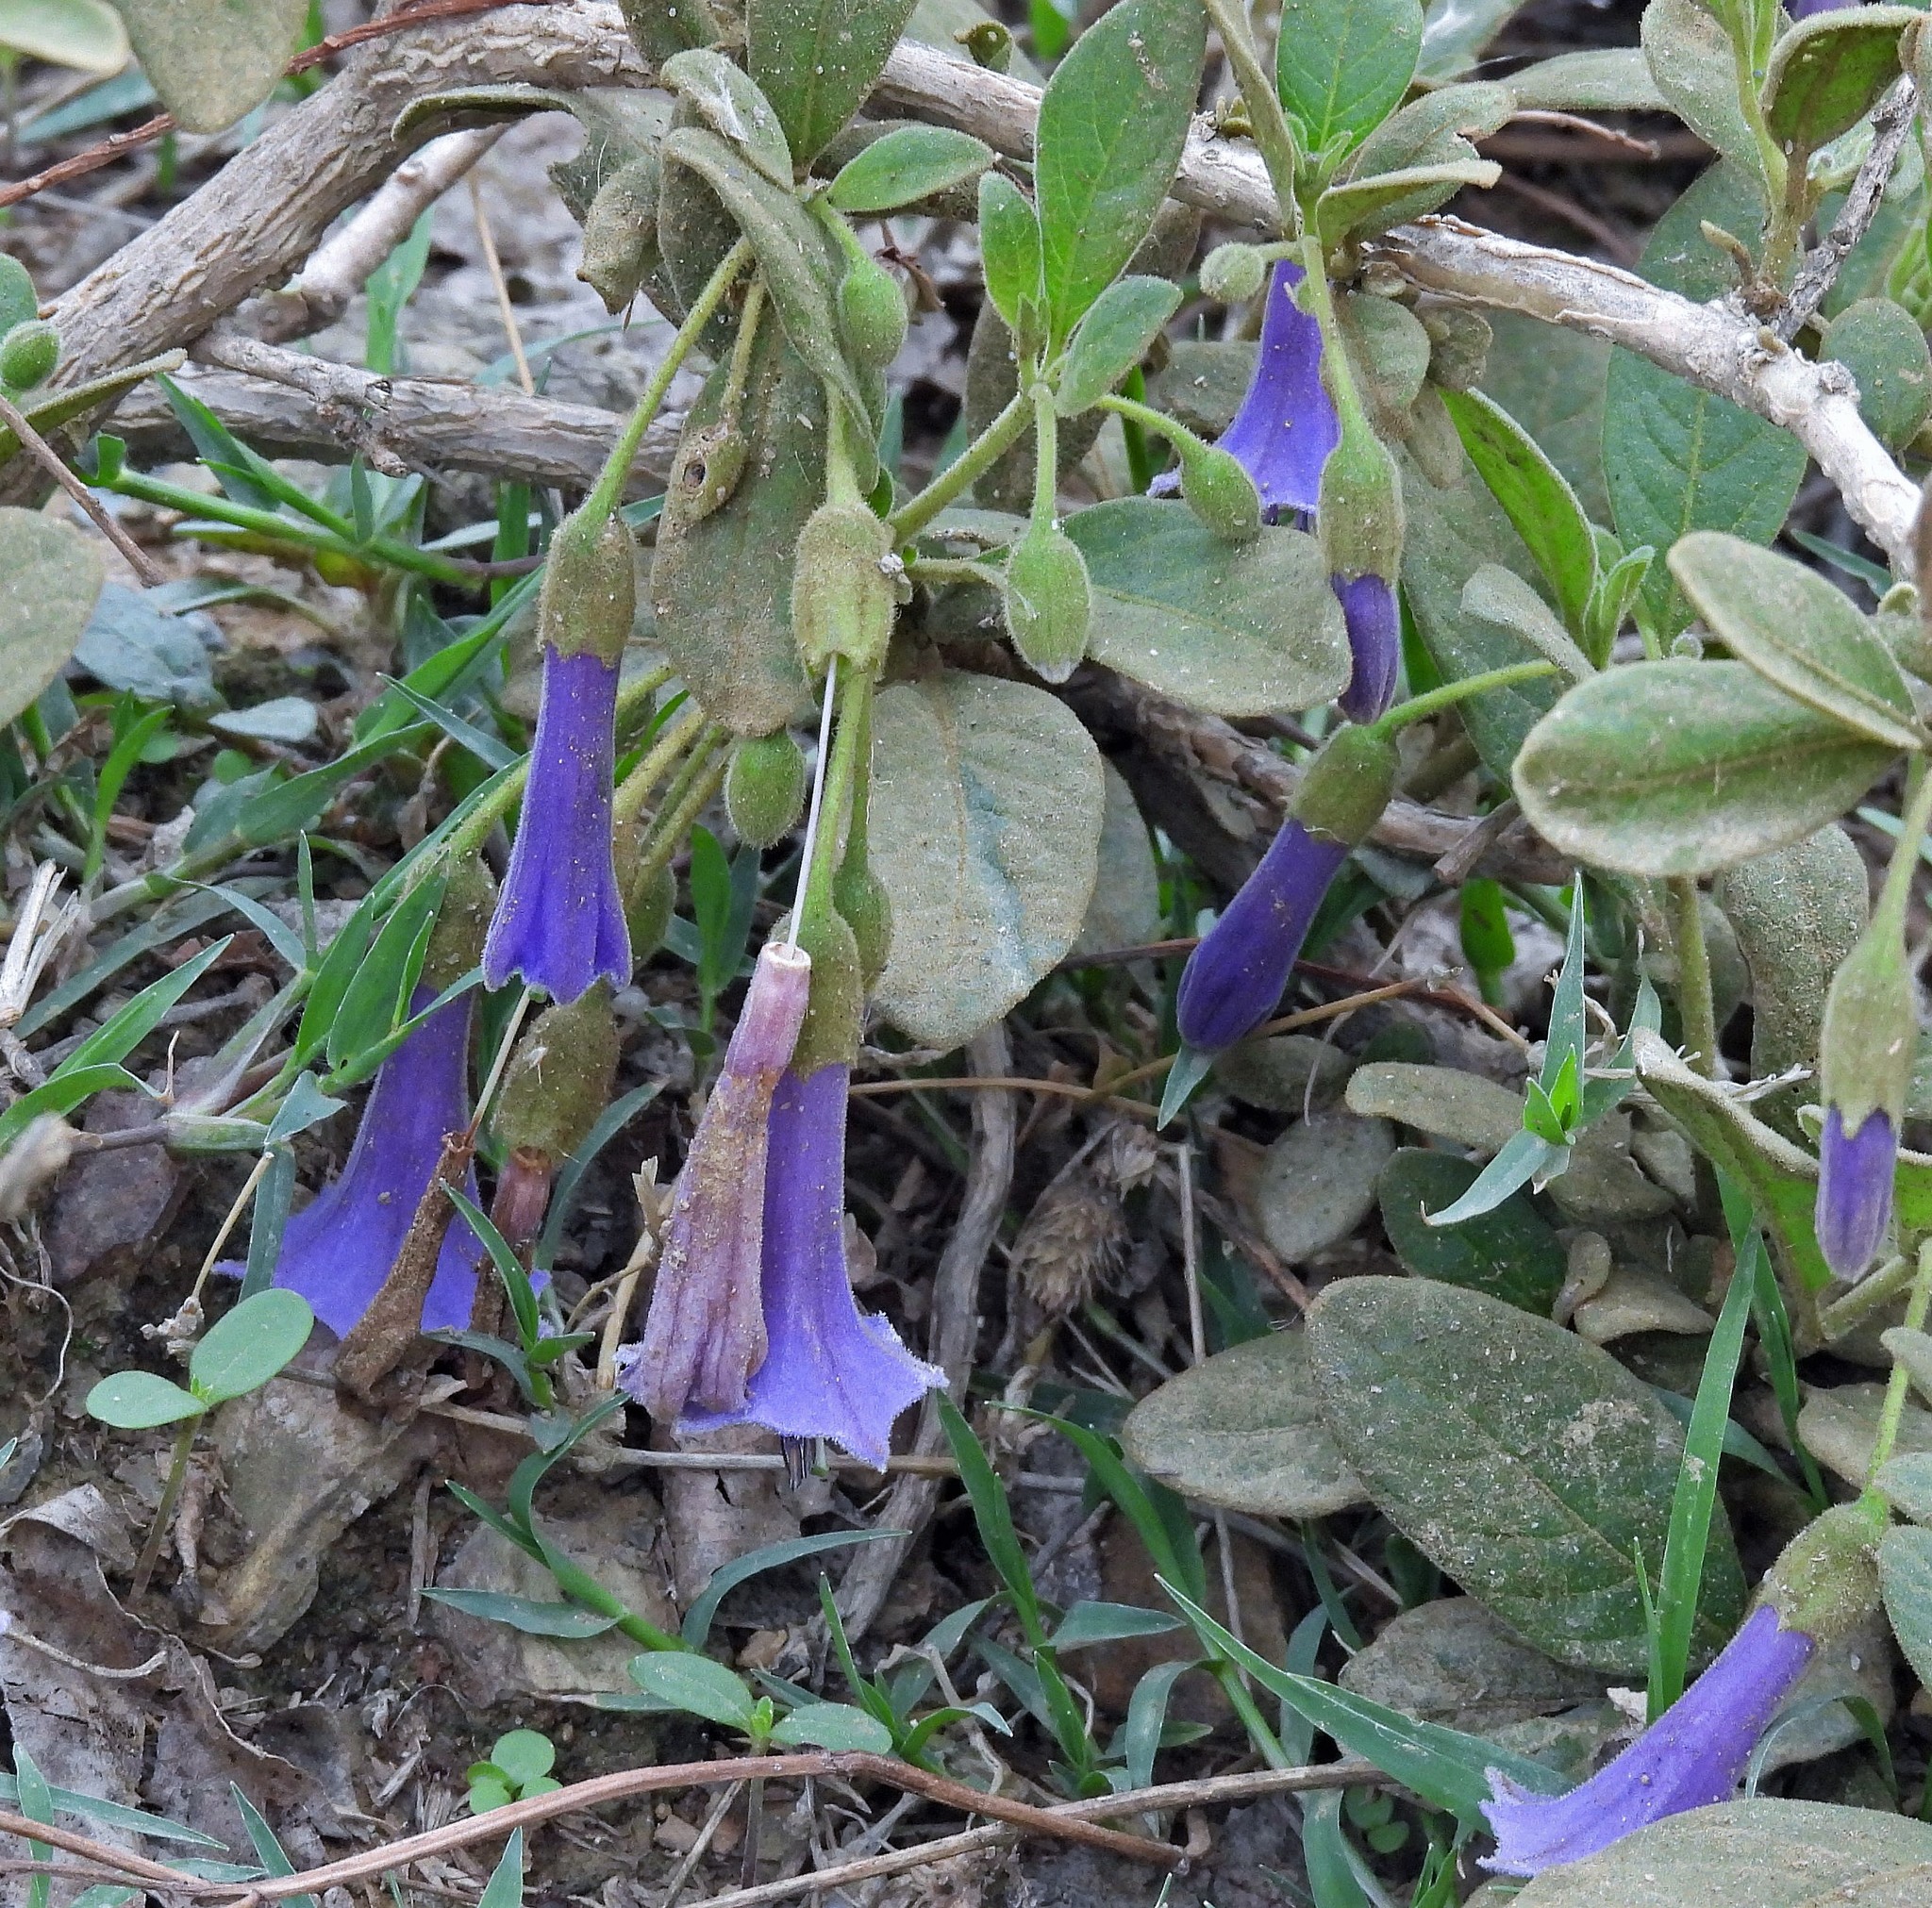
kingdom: Plantae
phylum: Tracheophyta
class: Magnoliopsida
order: Solanales
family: Solanaceae
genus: Eriolarynx
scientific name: Eriolarynx australis
